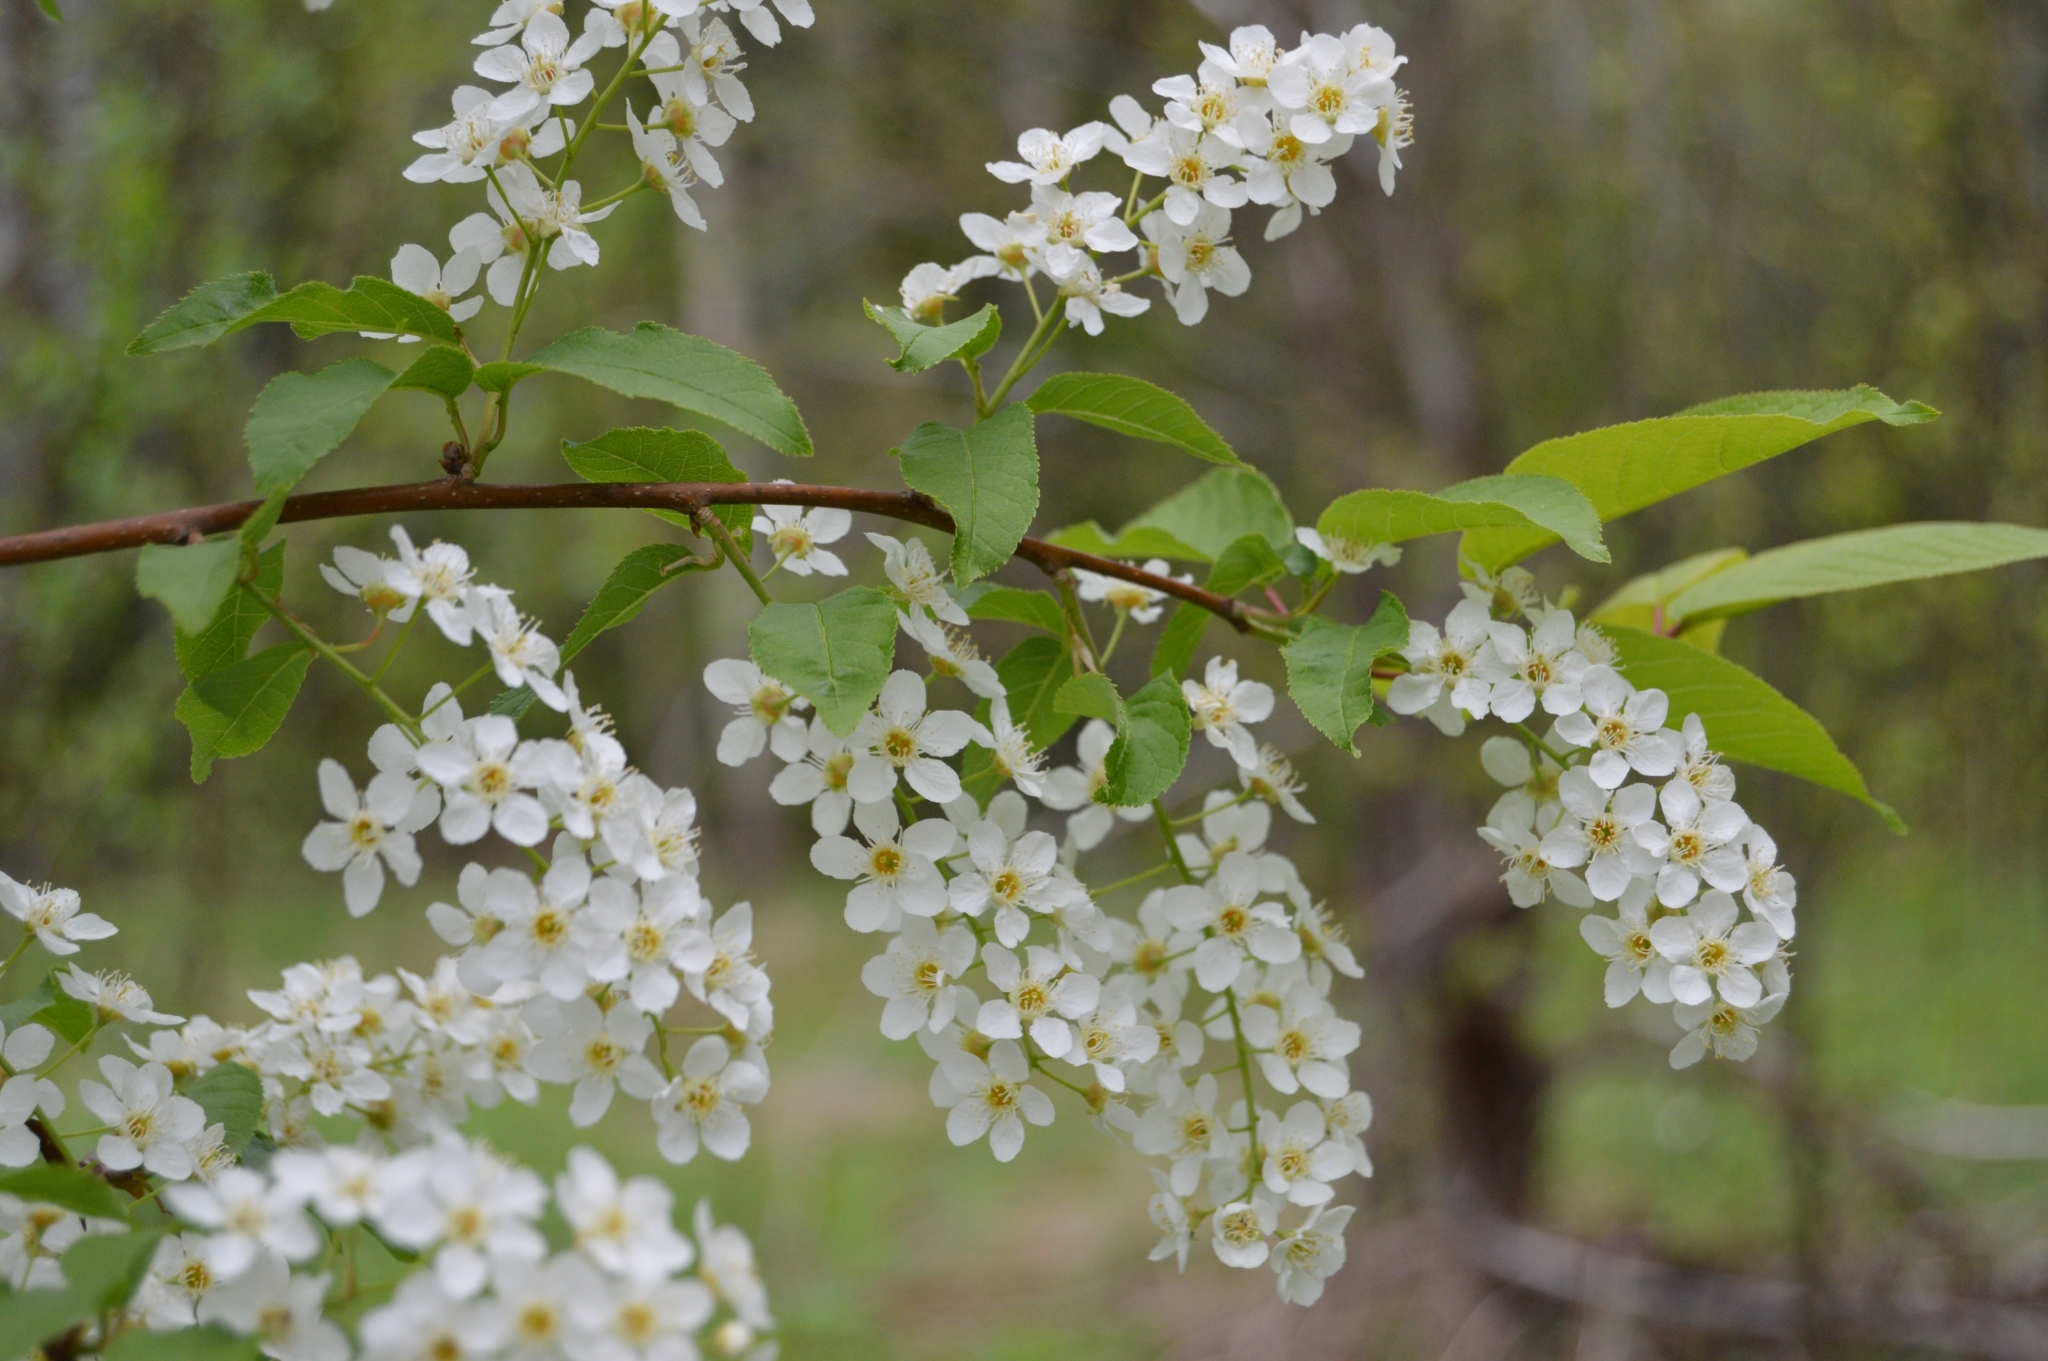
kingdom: Plantae
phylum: Tracheophyta
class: Magnoliopsida
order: Rosales
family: Rosaceae
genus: Prunus
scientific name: Prunus padus
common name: Bird cherry
